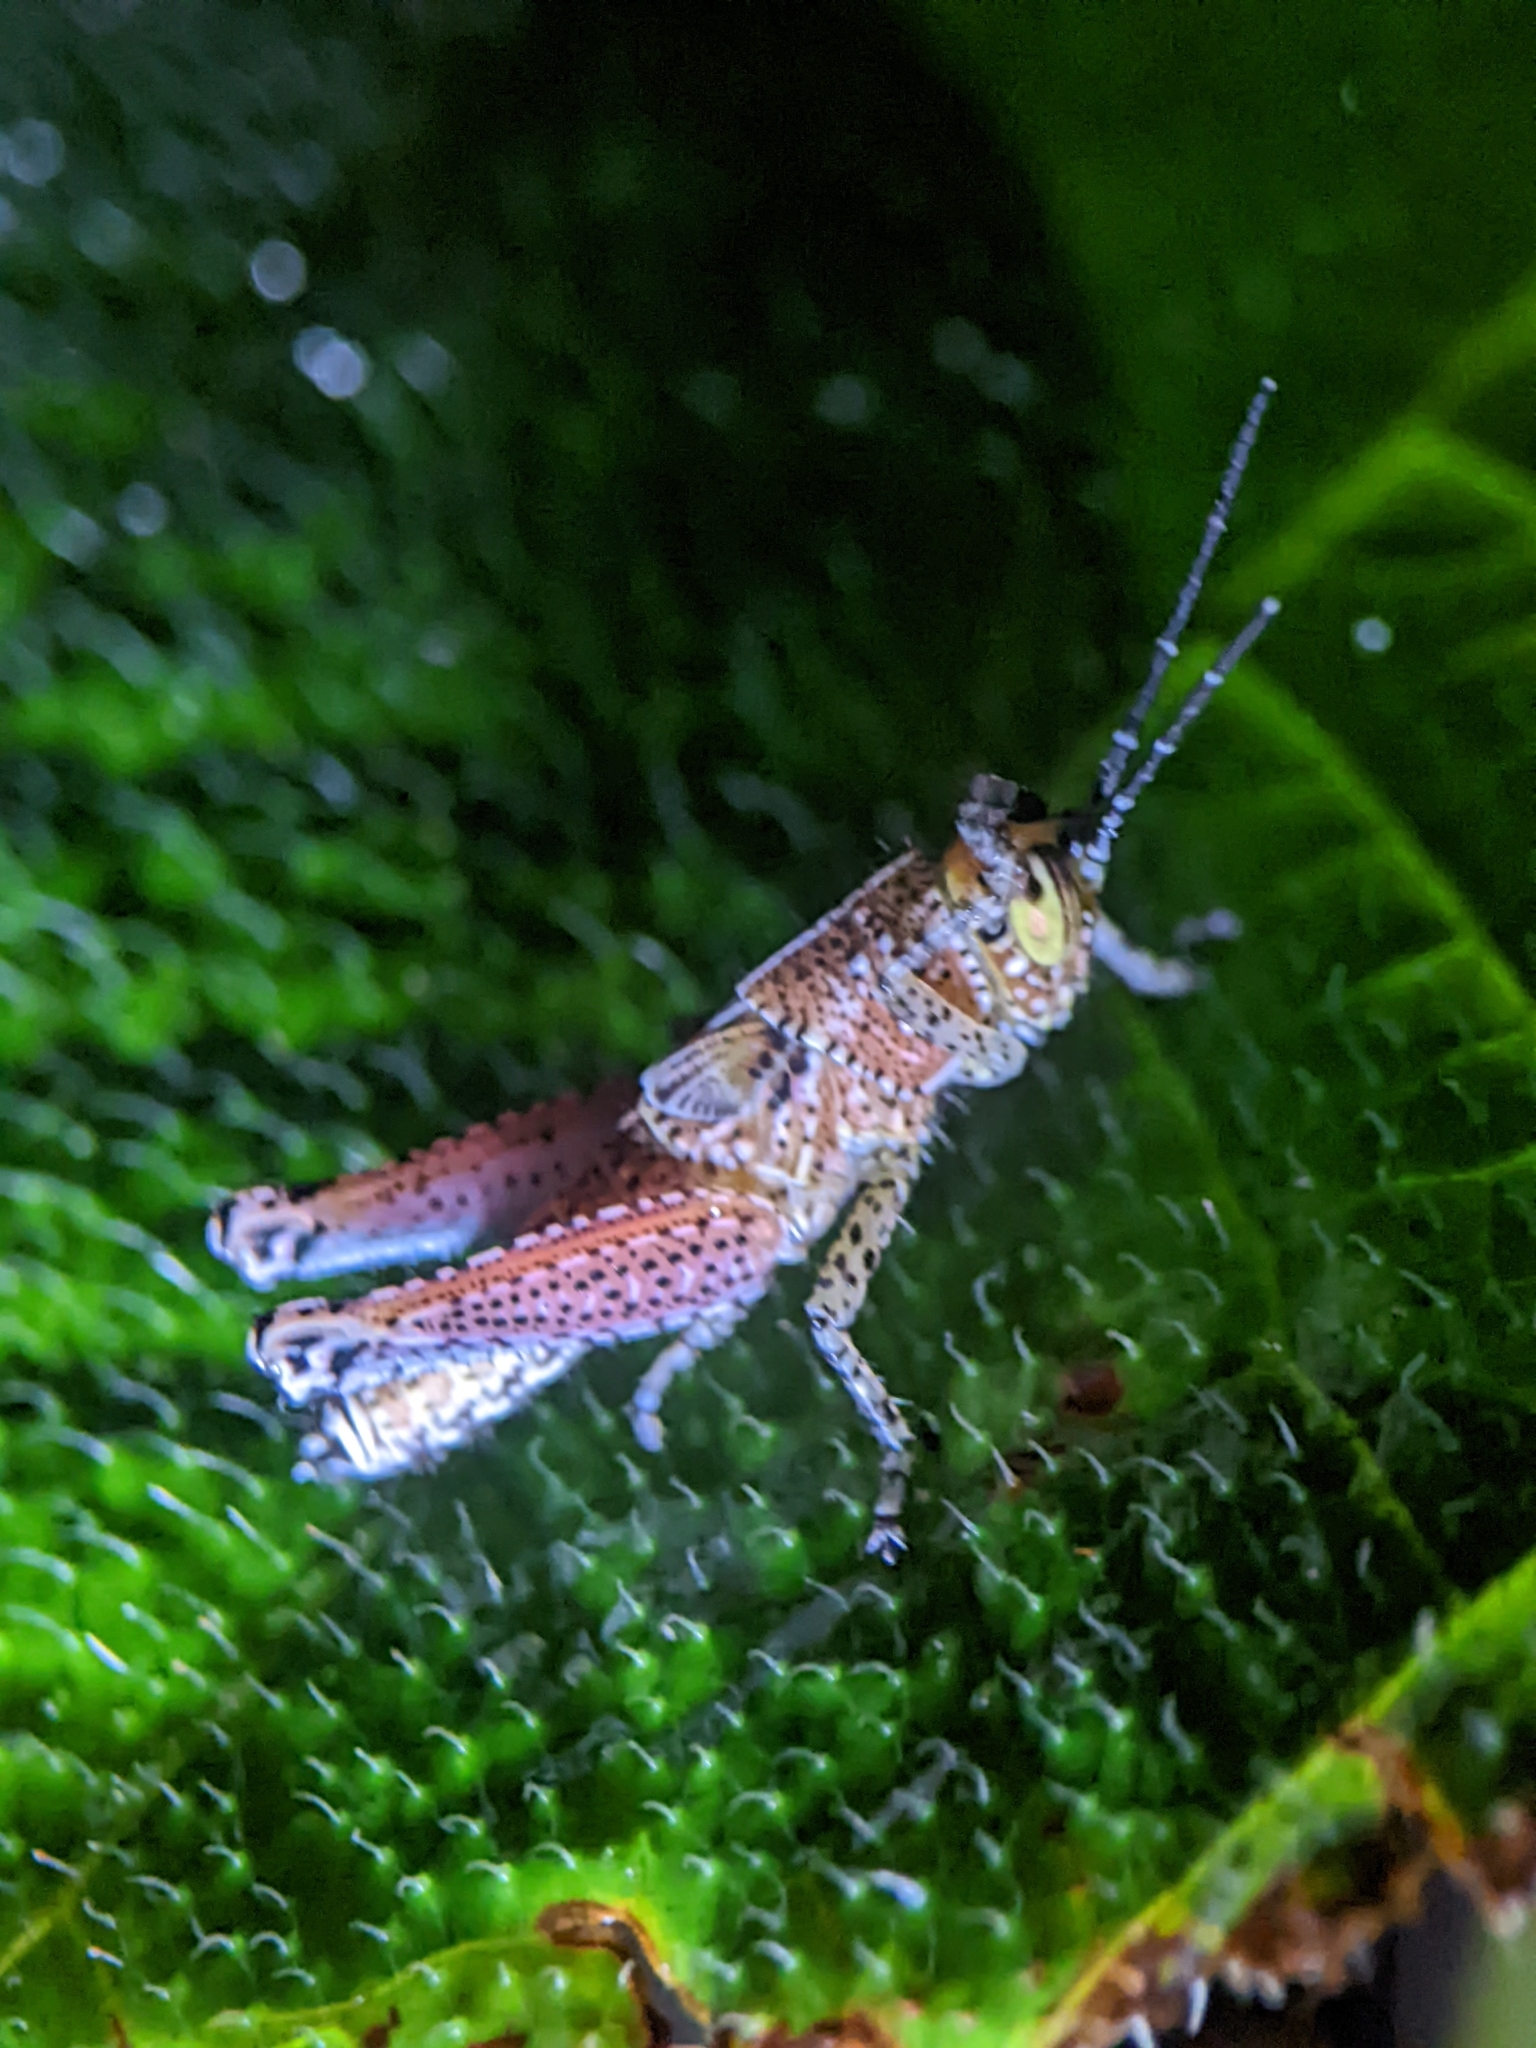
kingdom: Animalia
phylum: Arthropoda
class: Insecta
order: Orthoptera
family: Acrididae
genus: Xenocatantops
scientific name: Xenocatantops humile
